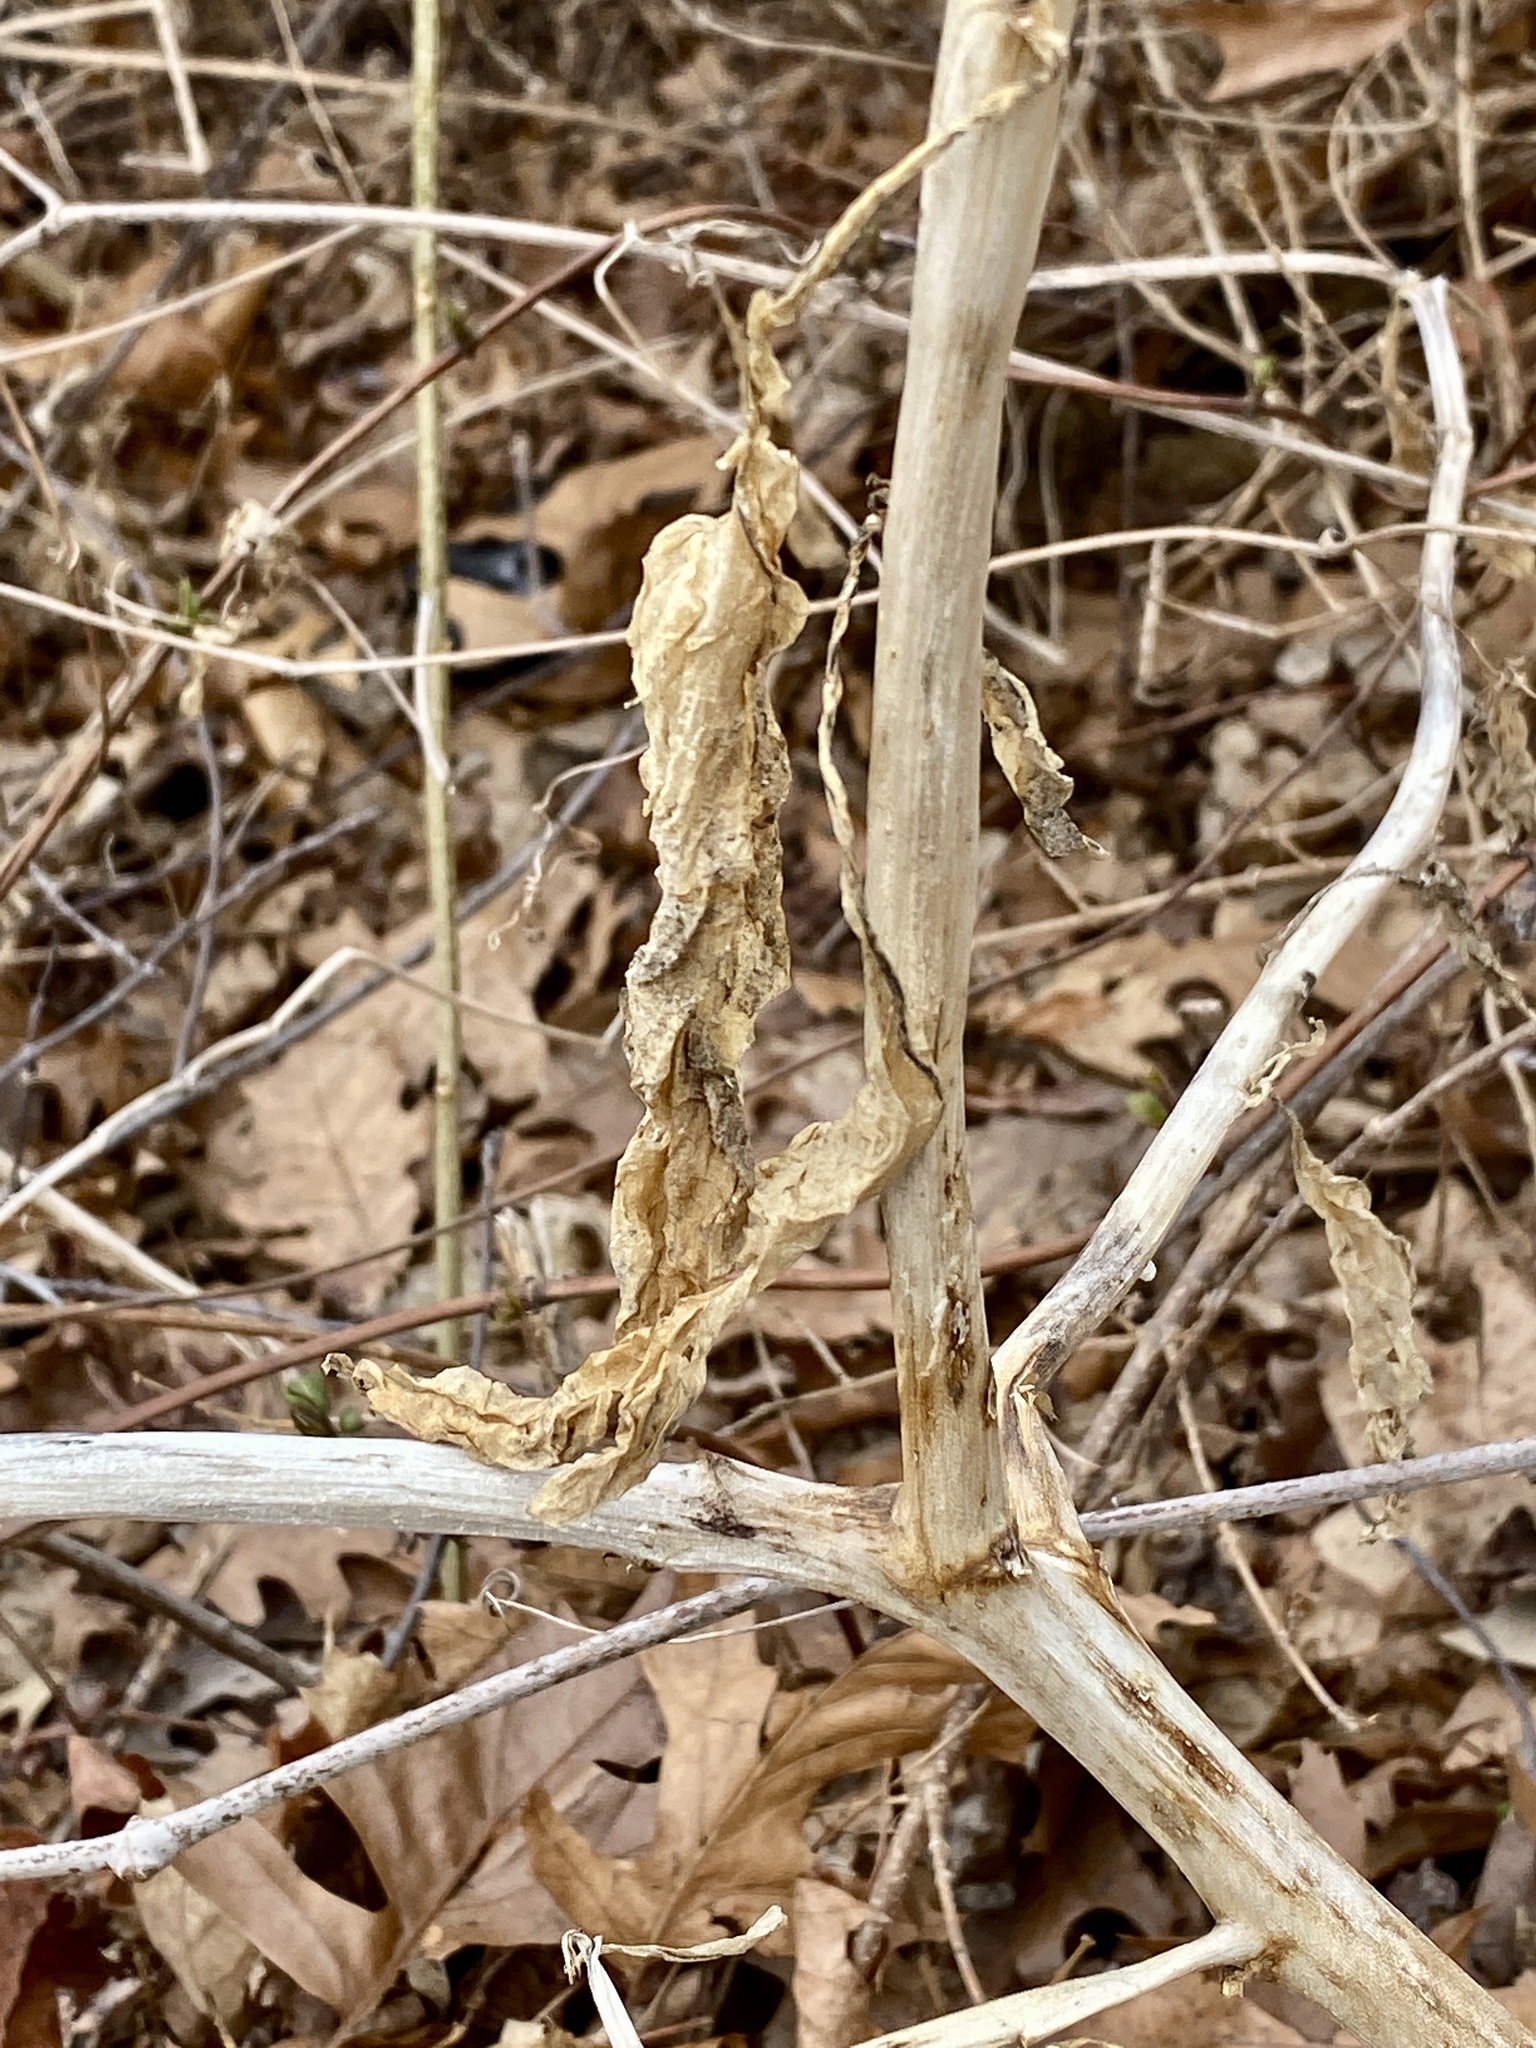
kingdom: Plantae
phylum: Tracheophyta
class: Magnoliopsida
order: Caryophyllales
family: Phytolaccaceae
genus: Phytolacca
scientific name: Phytolacca americana
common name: American pokeweed
